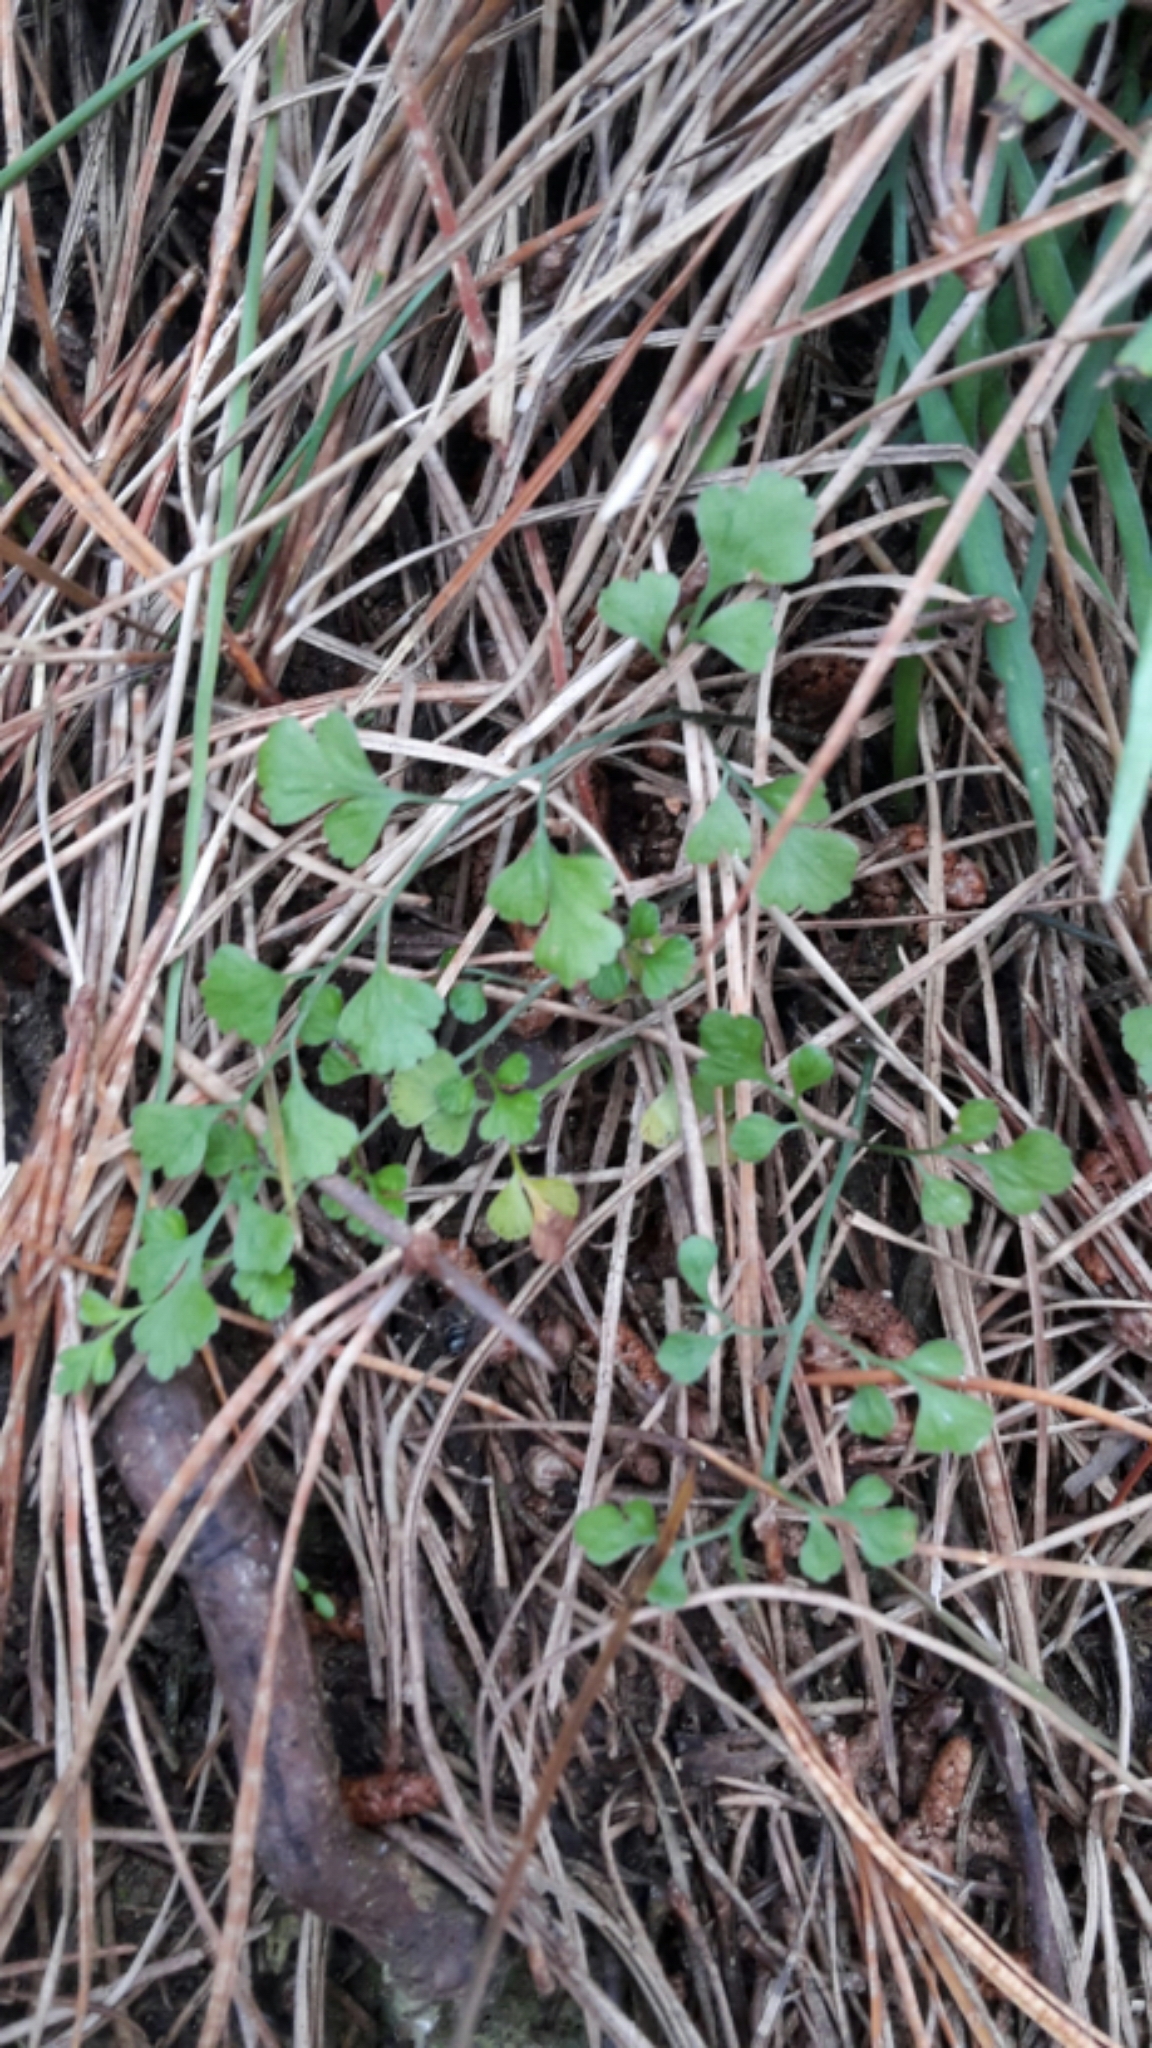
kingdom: Plantae
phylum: Tracheophyta
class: Polypodiopsida
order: Polypodiales
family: Aspleniaceae
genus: Asplenium
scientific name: Asplenium hookerianum
